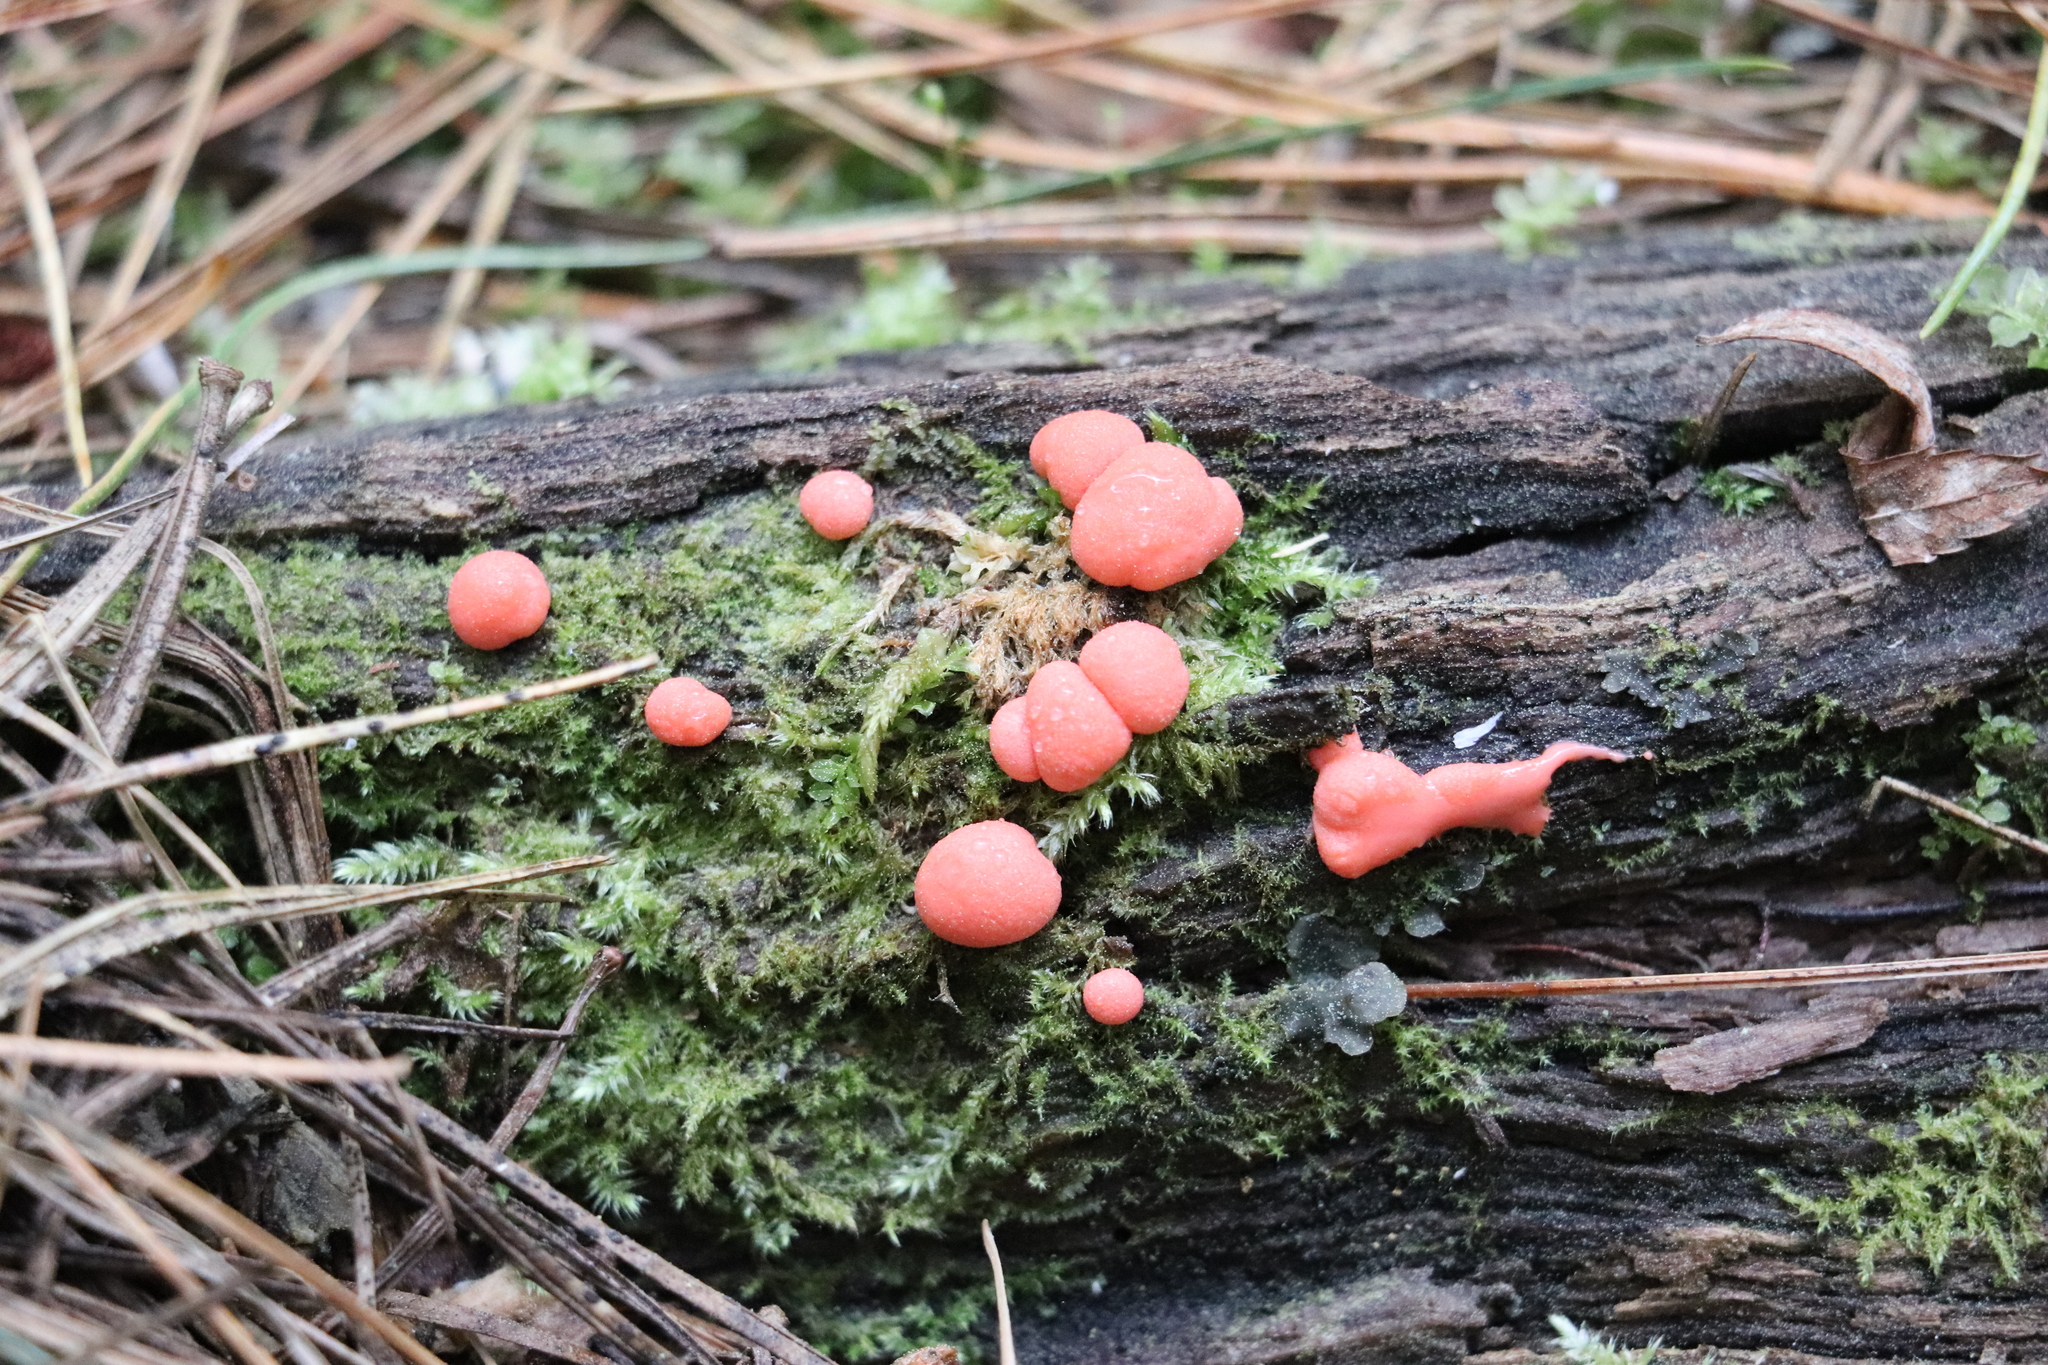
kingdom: Protozoa
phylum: Mycetozoa
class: Myxomycetes
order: Cribrariales
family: Tubiferaceae
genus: Lycogala
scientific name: Lycogala epidendrum
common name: Wolf's milk
